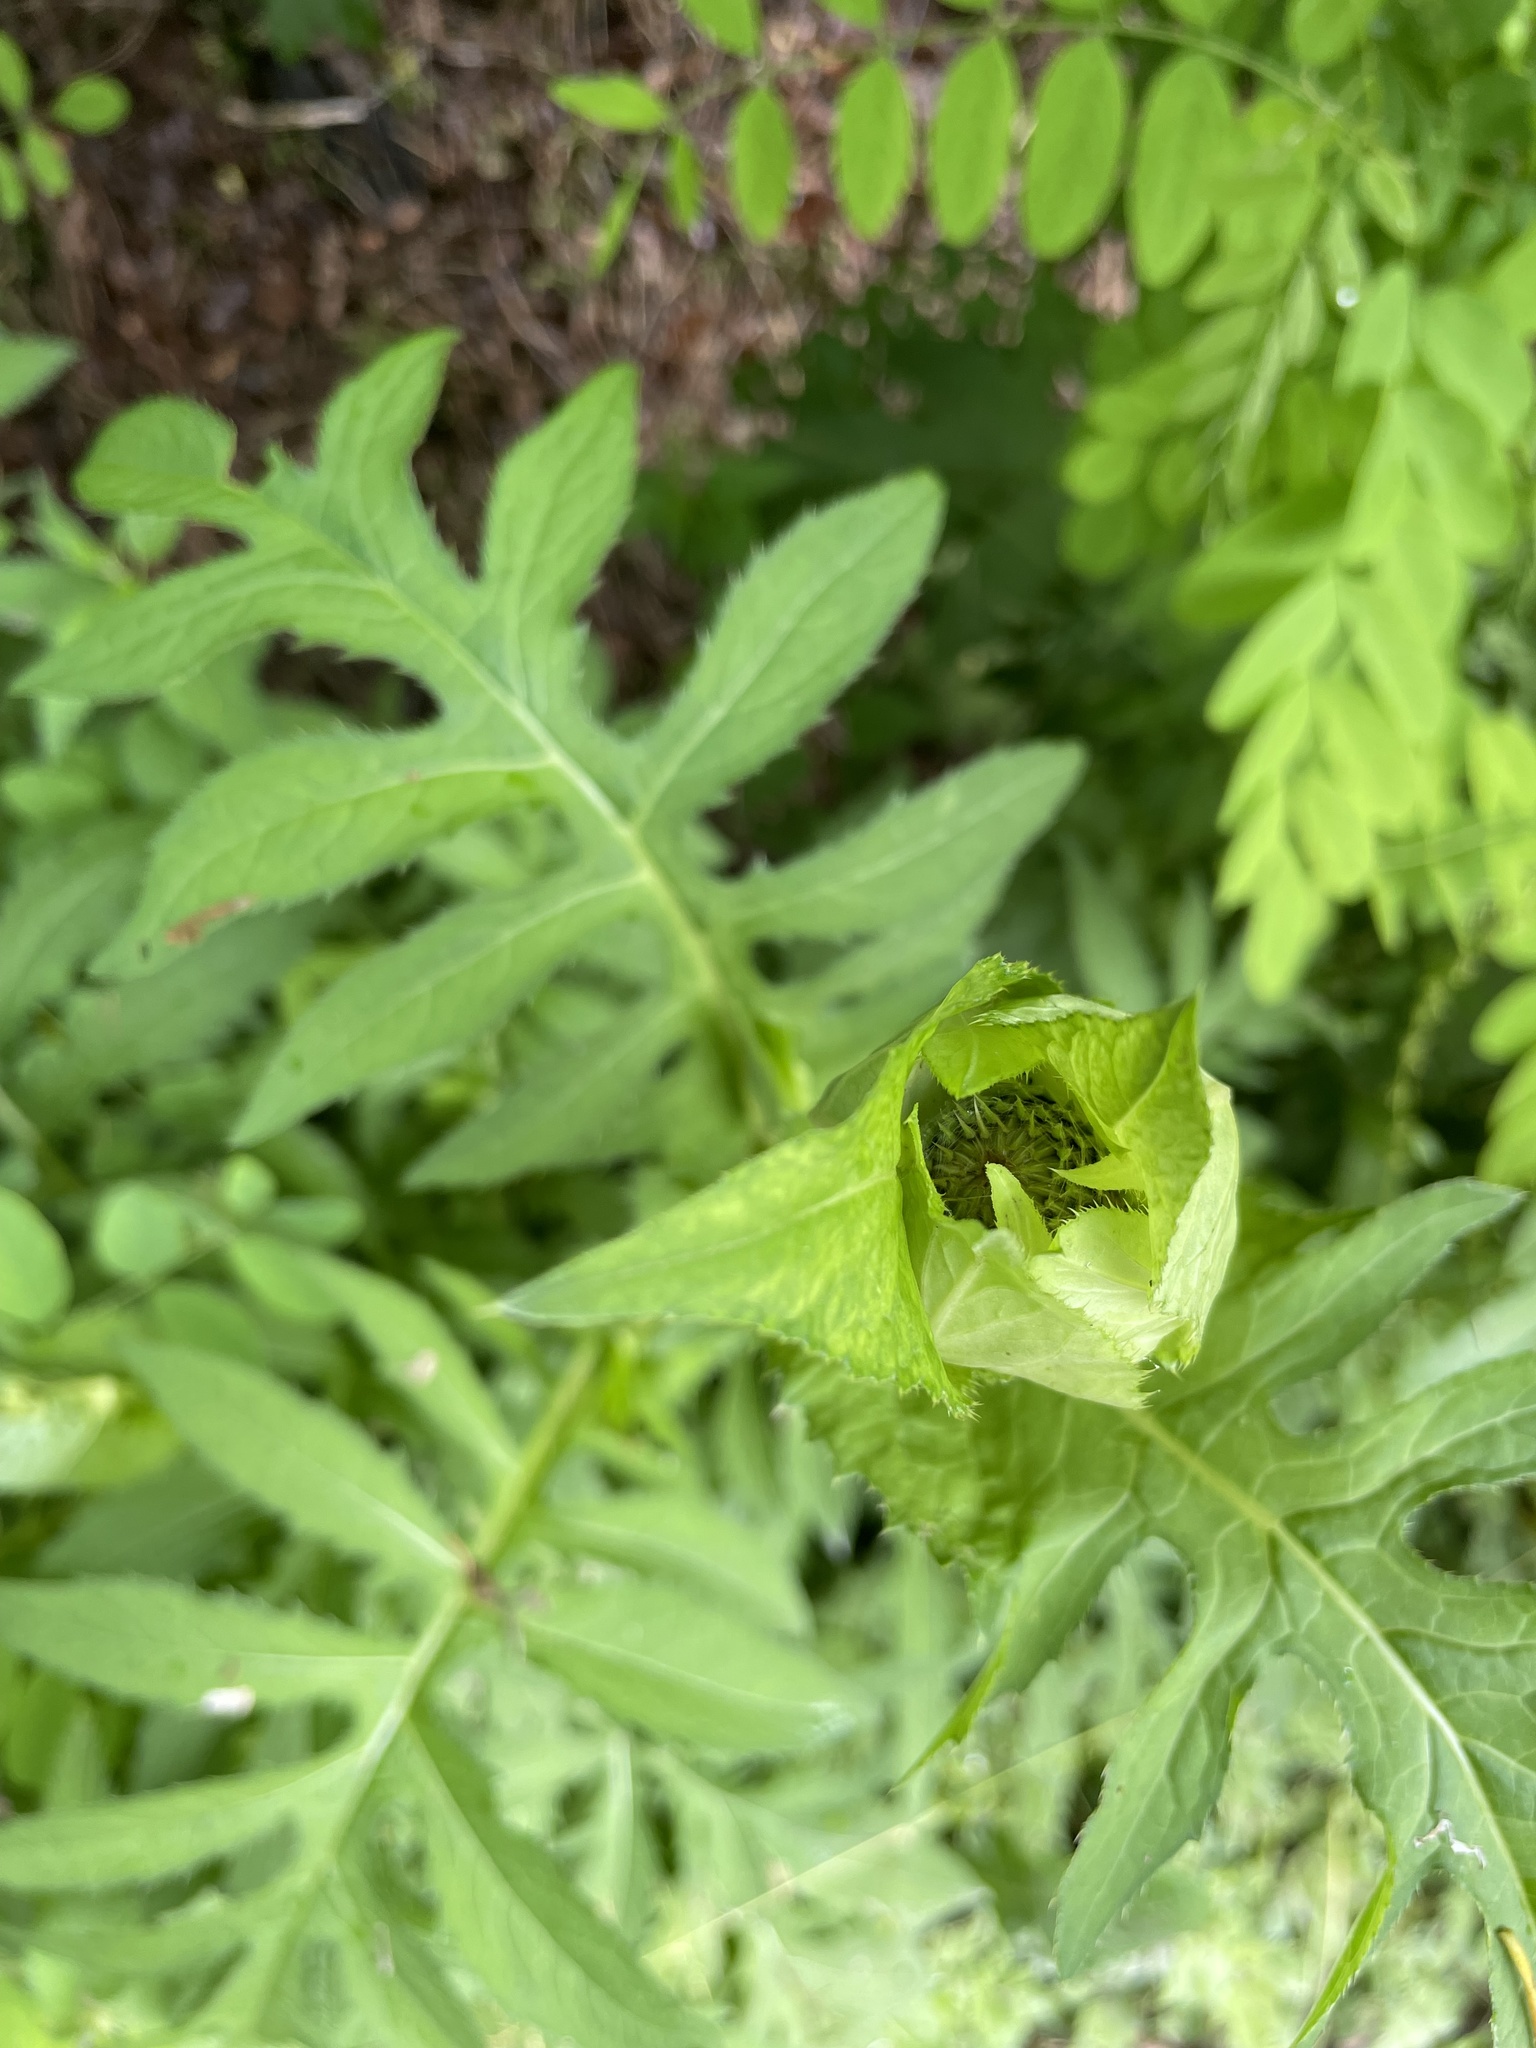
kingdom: Plantae
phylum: Tracheophyta
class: Magnoliopsida
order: Asterales
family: Asteraceae
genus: Cirsium
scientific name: Cirsium oleraceum
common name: Cabbage thistle
